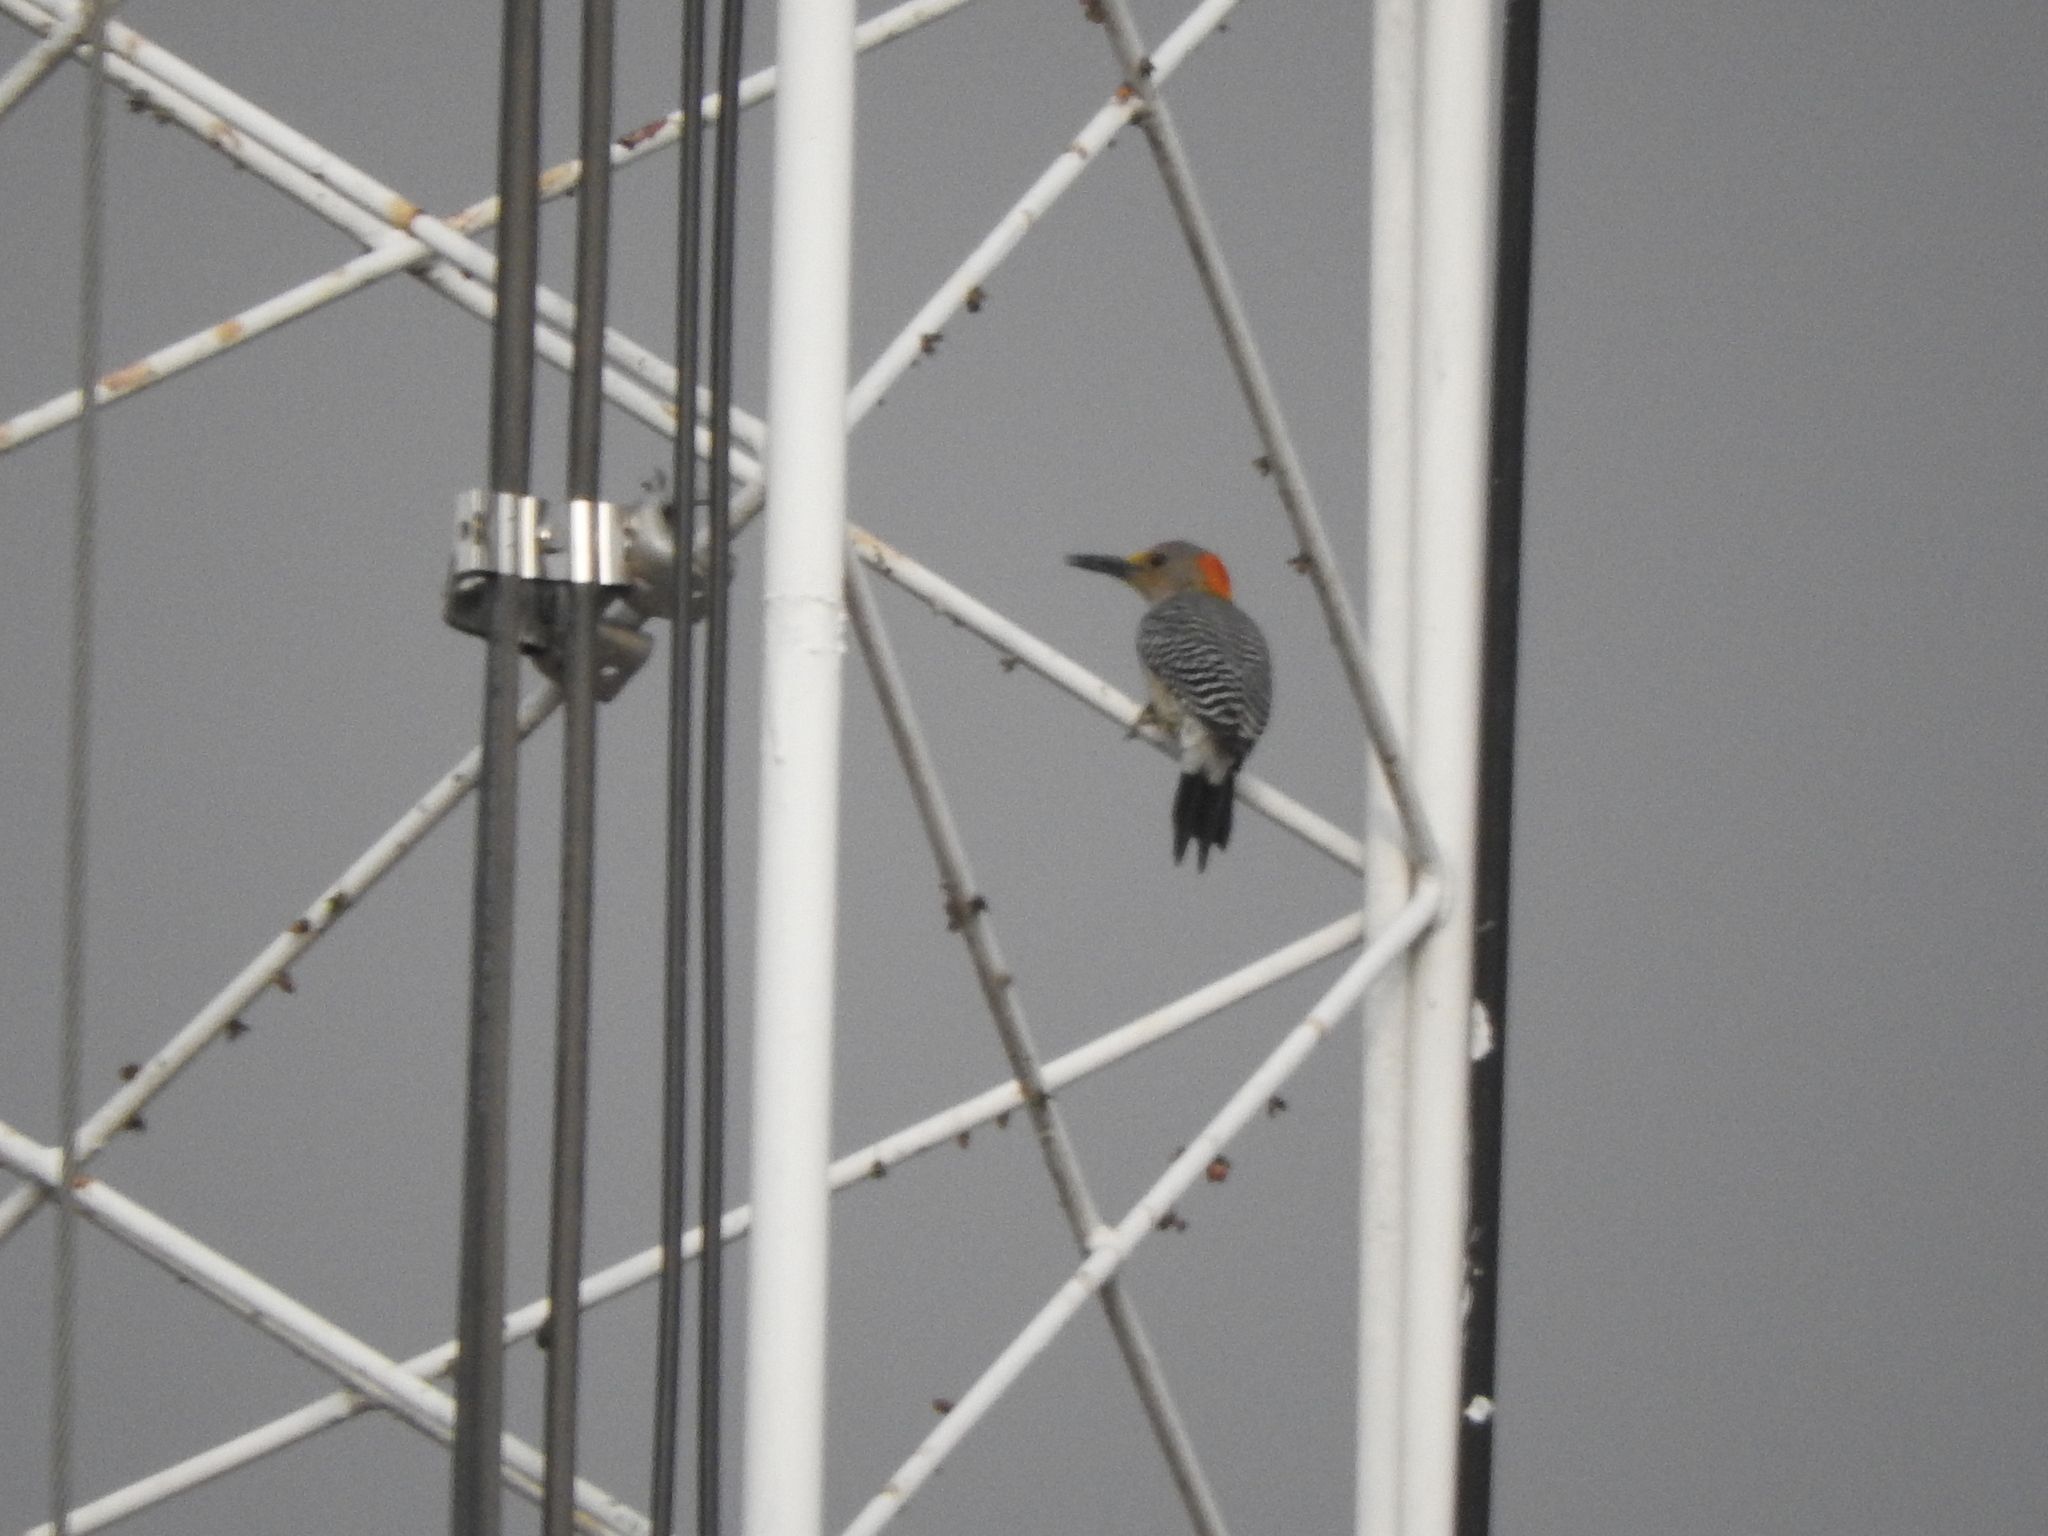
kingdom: Animalia
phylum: Chordata
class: Aves
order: Piciformes
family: Picidae
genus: Melanerpes
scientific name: Melanerpes aurifrons
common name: Golden-fronted woodpecker
